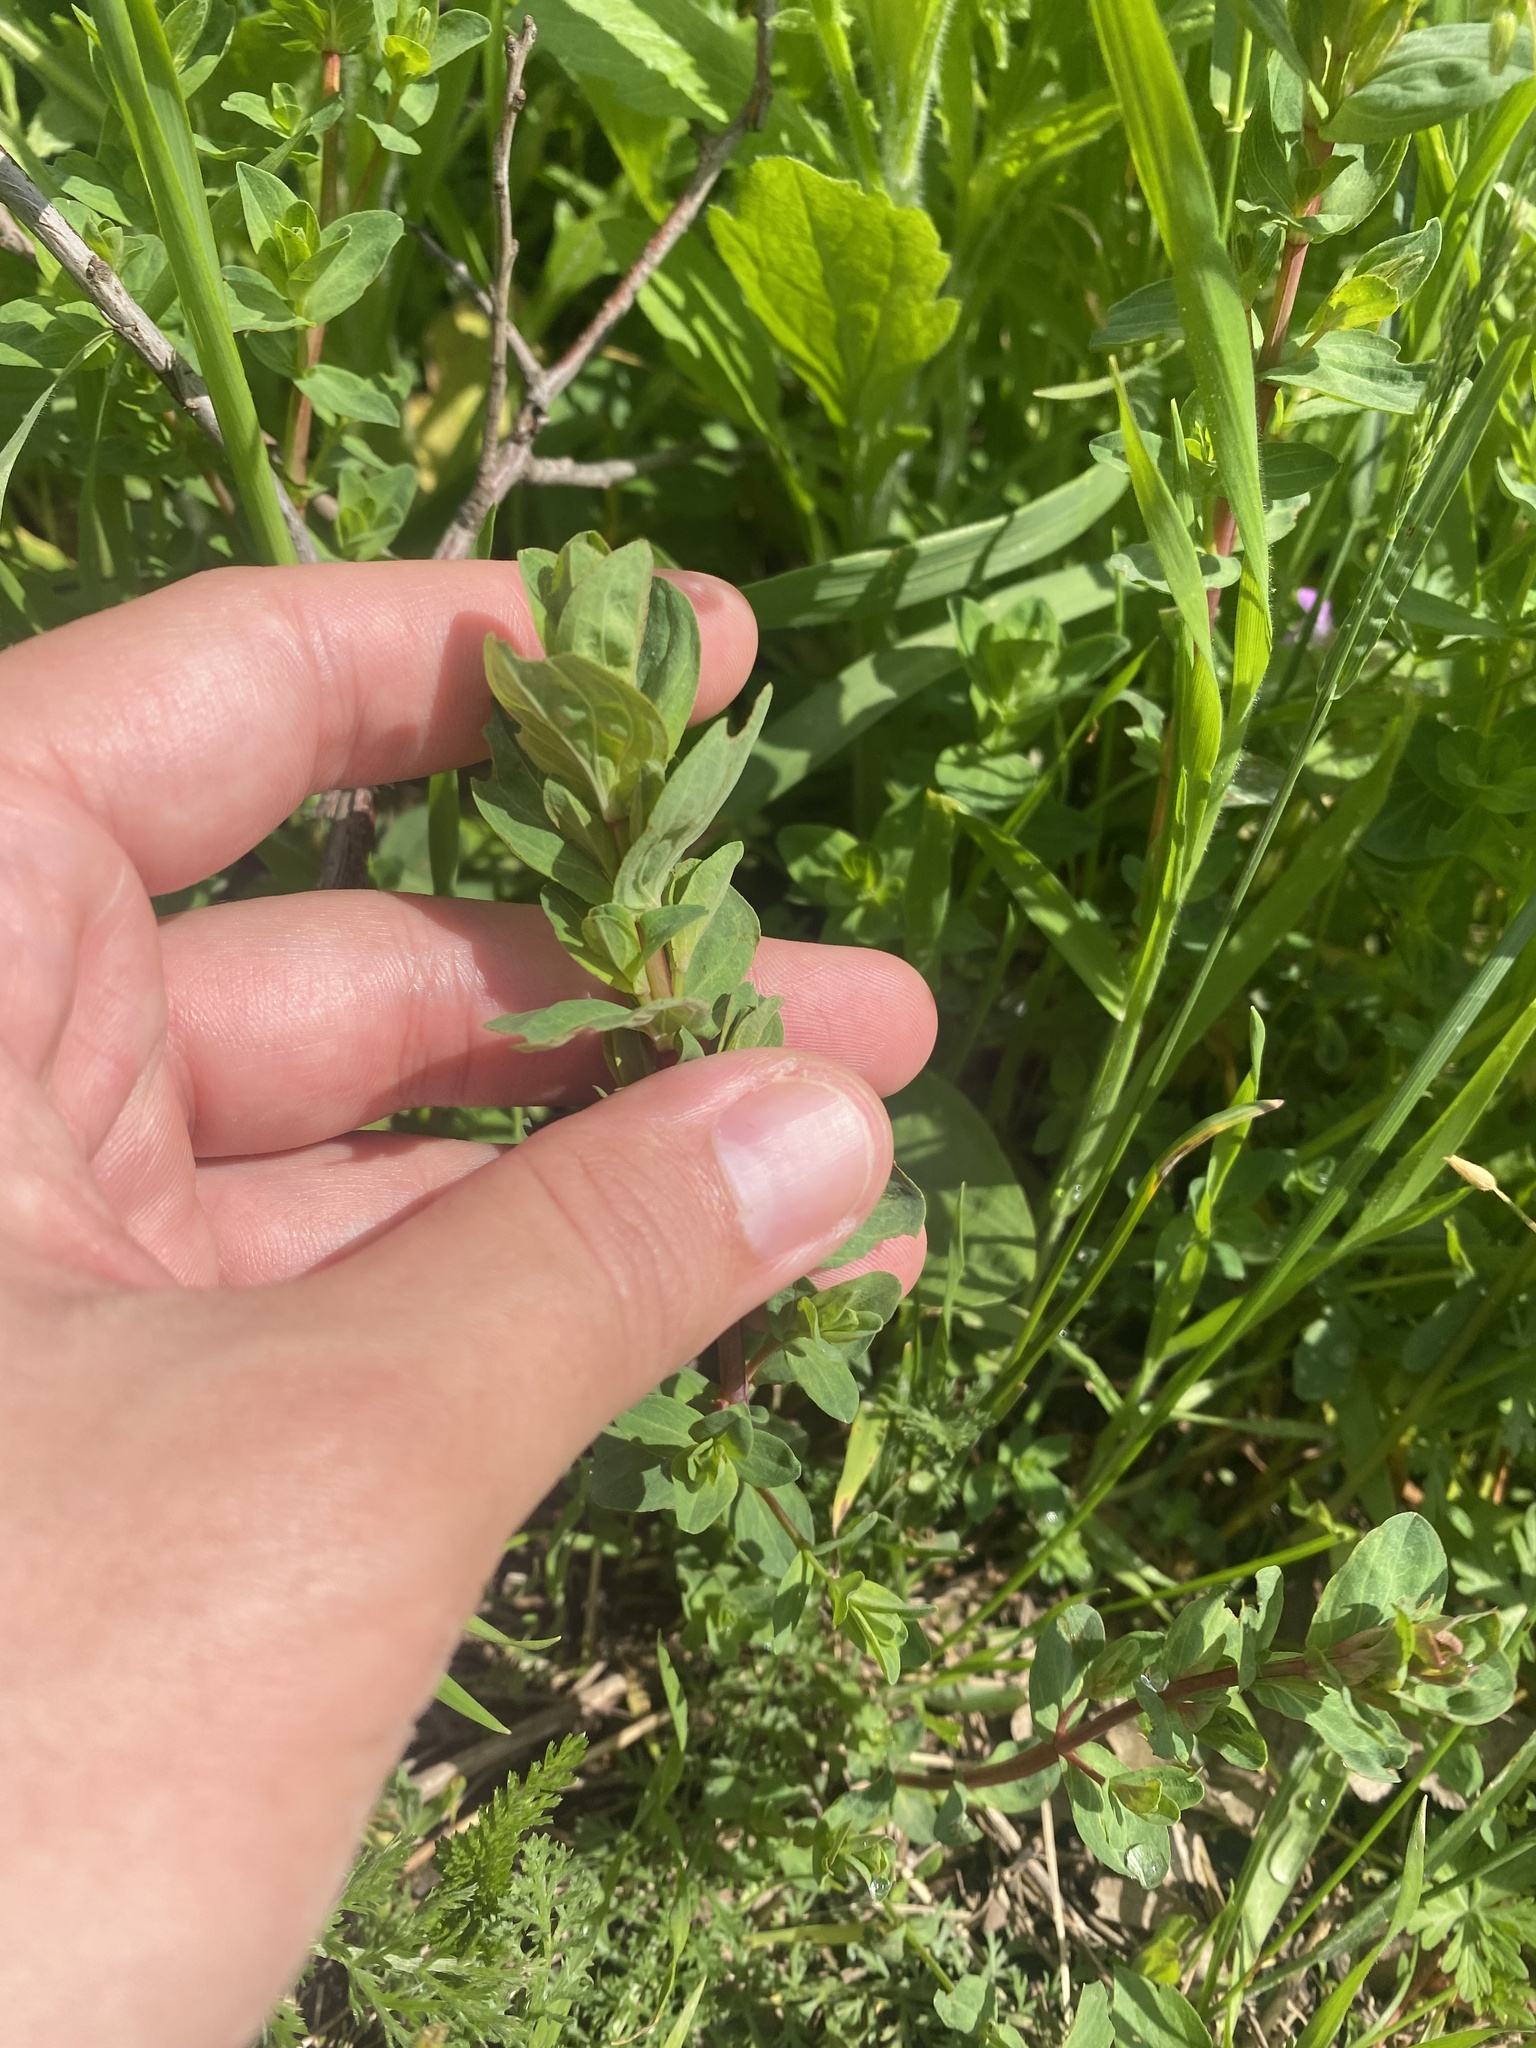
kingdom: Plantae
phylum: Tracheophyta
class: Magnoliopsida
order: Malpighiales
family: Hypericaceae
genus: Hypericum
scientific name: Hypericum perforatum
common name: Common st. johnswort
